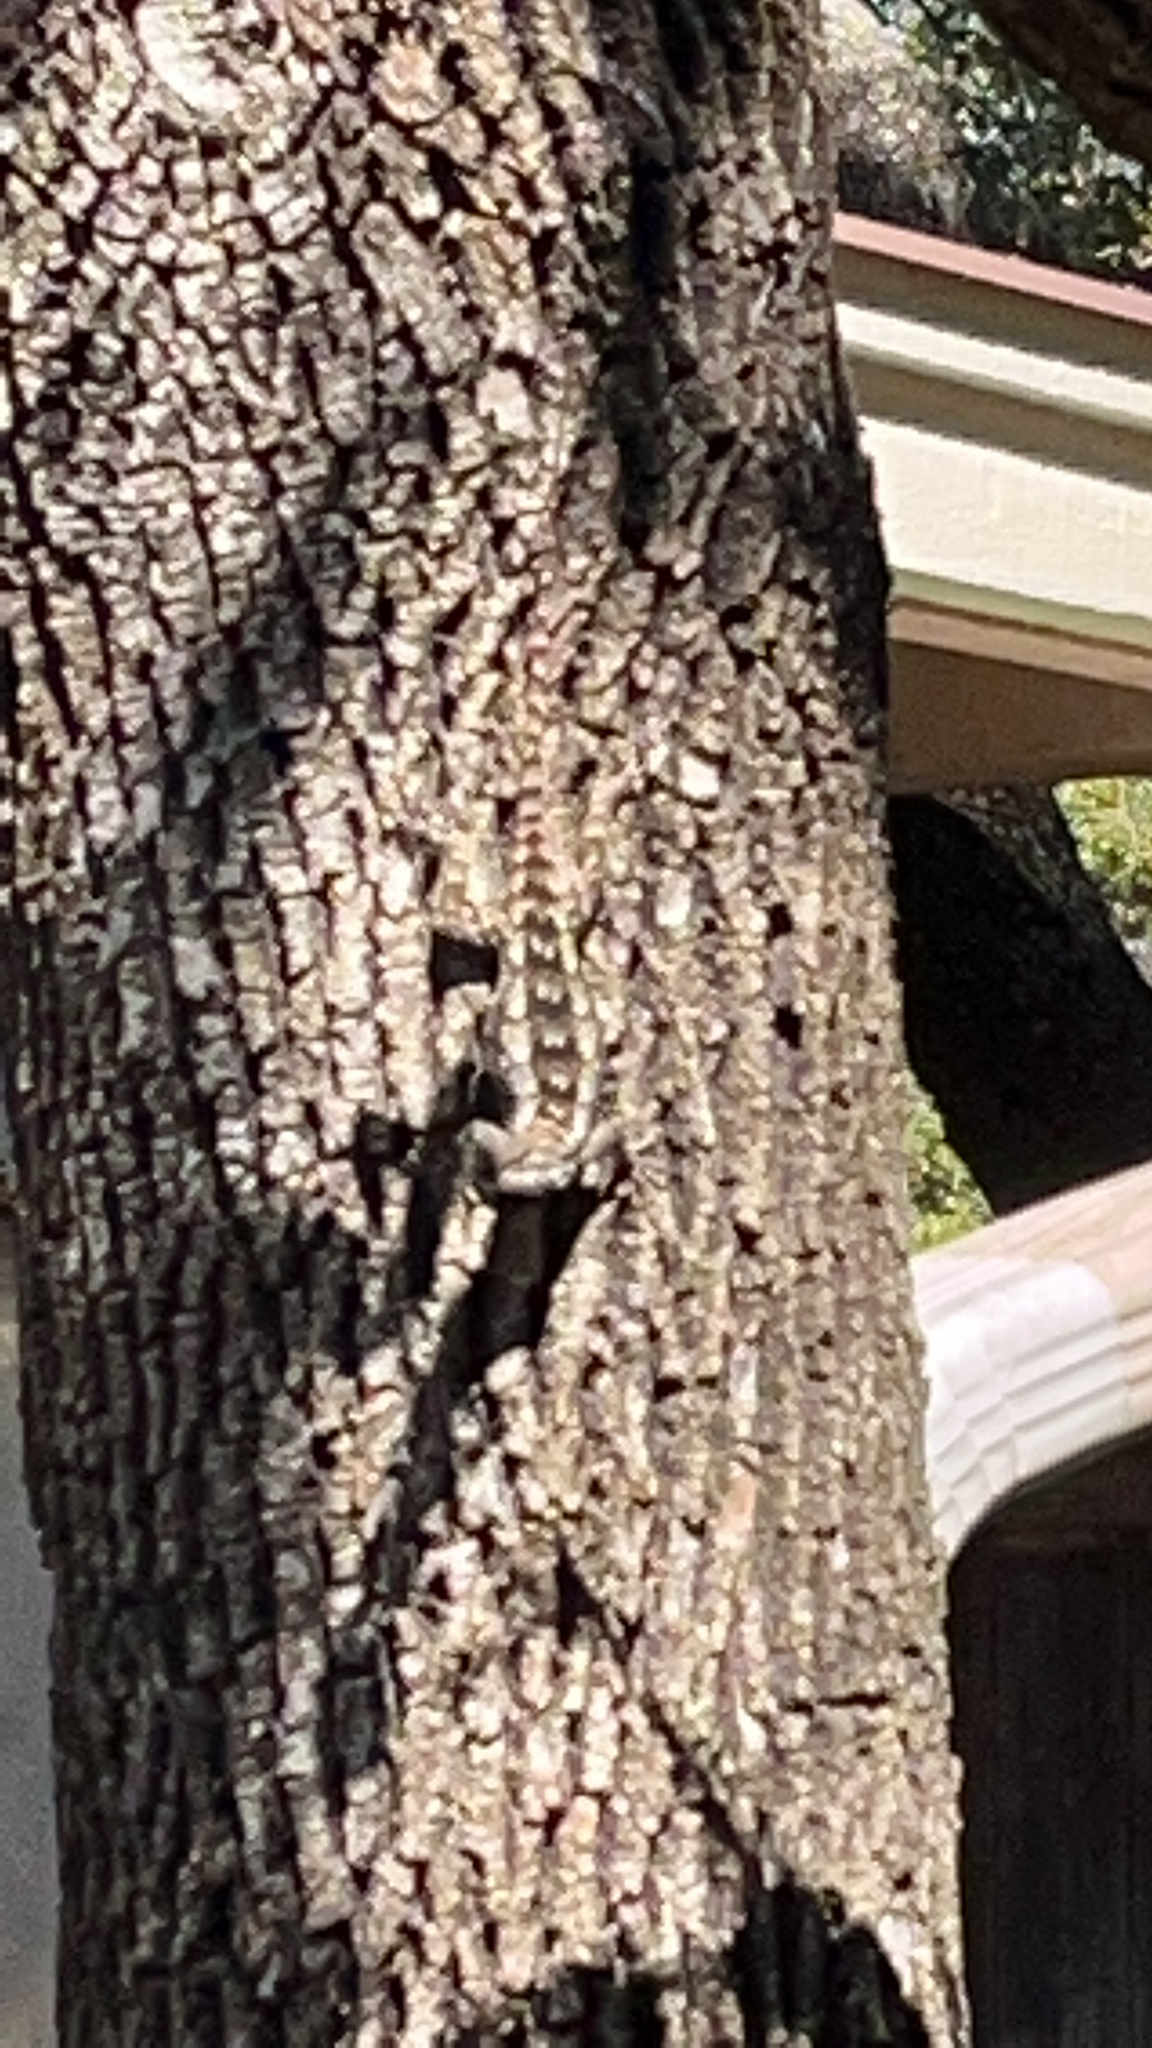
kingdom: Animalia
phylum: Chordata
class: Squamata
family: Phrynosomatidae
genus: Sceloporus
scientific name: Sceloporus olivaceus
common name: Texas spiny lizard
